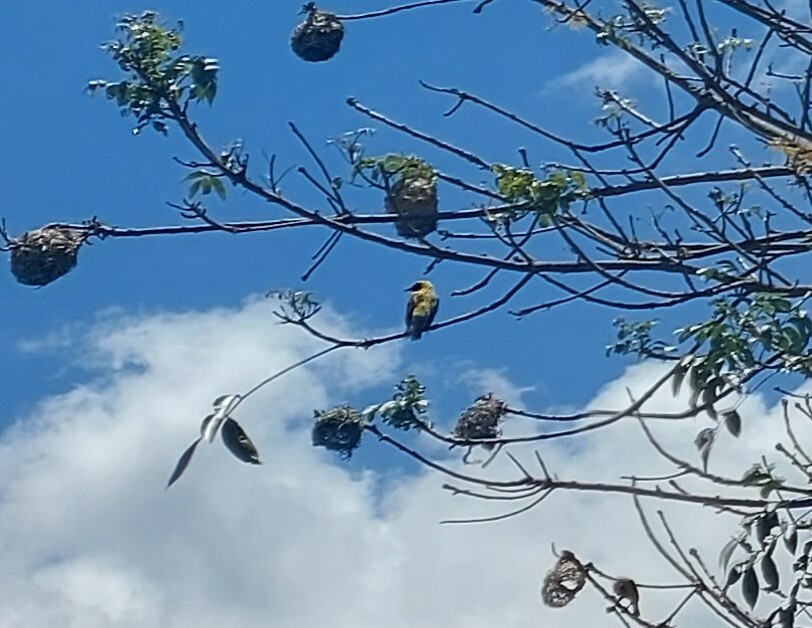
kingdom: Animalia
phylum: Chordata
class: Aves
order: Passeriformes
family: Ploceidae
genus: Ploceus
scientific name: Ploceus cucullatus
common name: Village weaver
